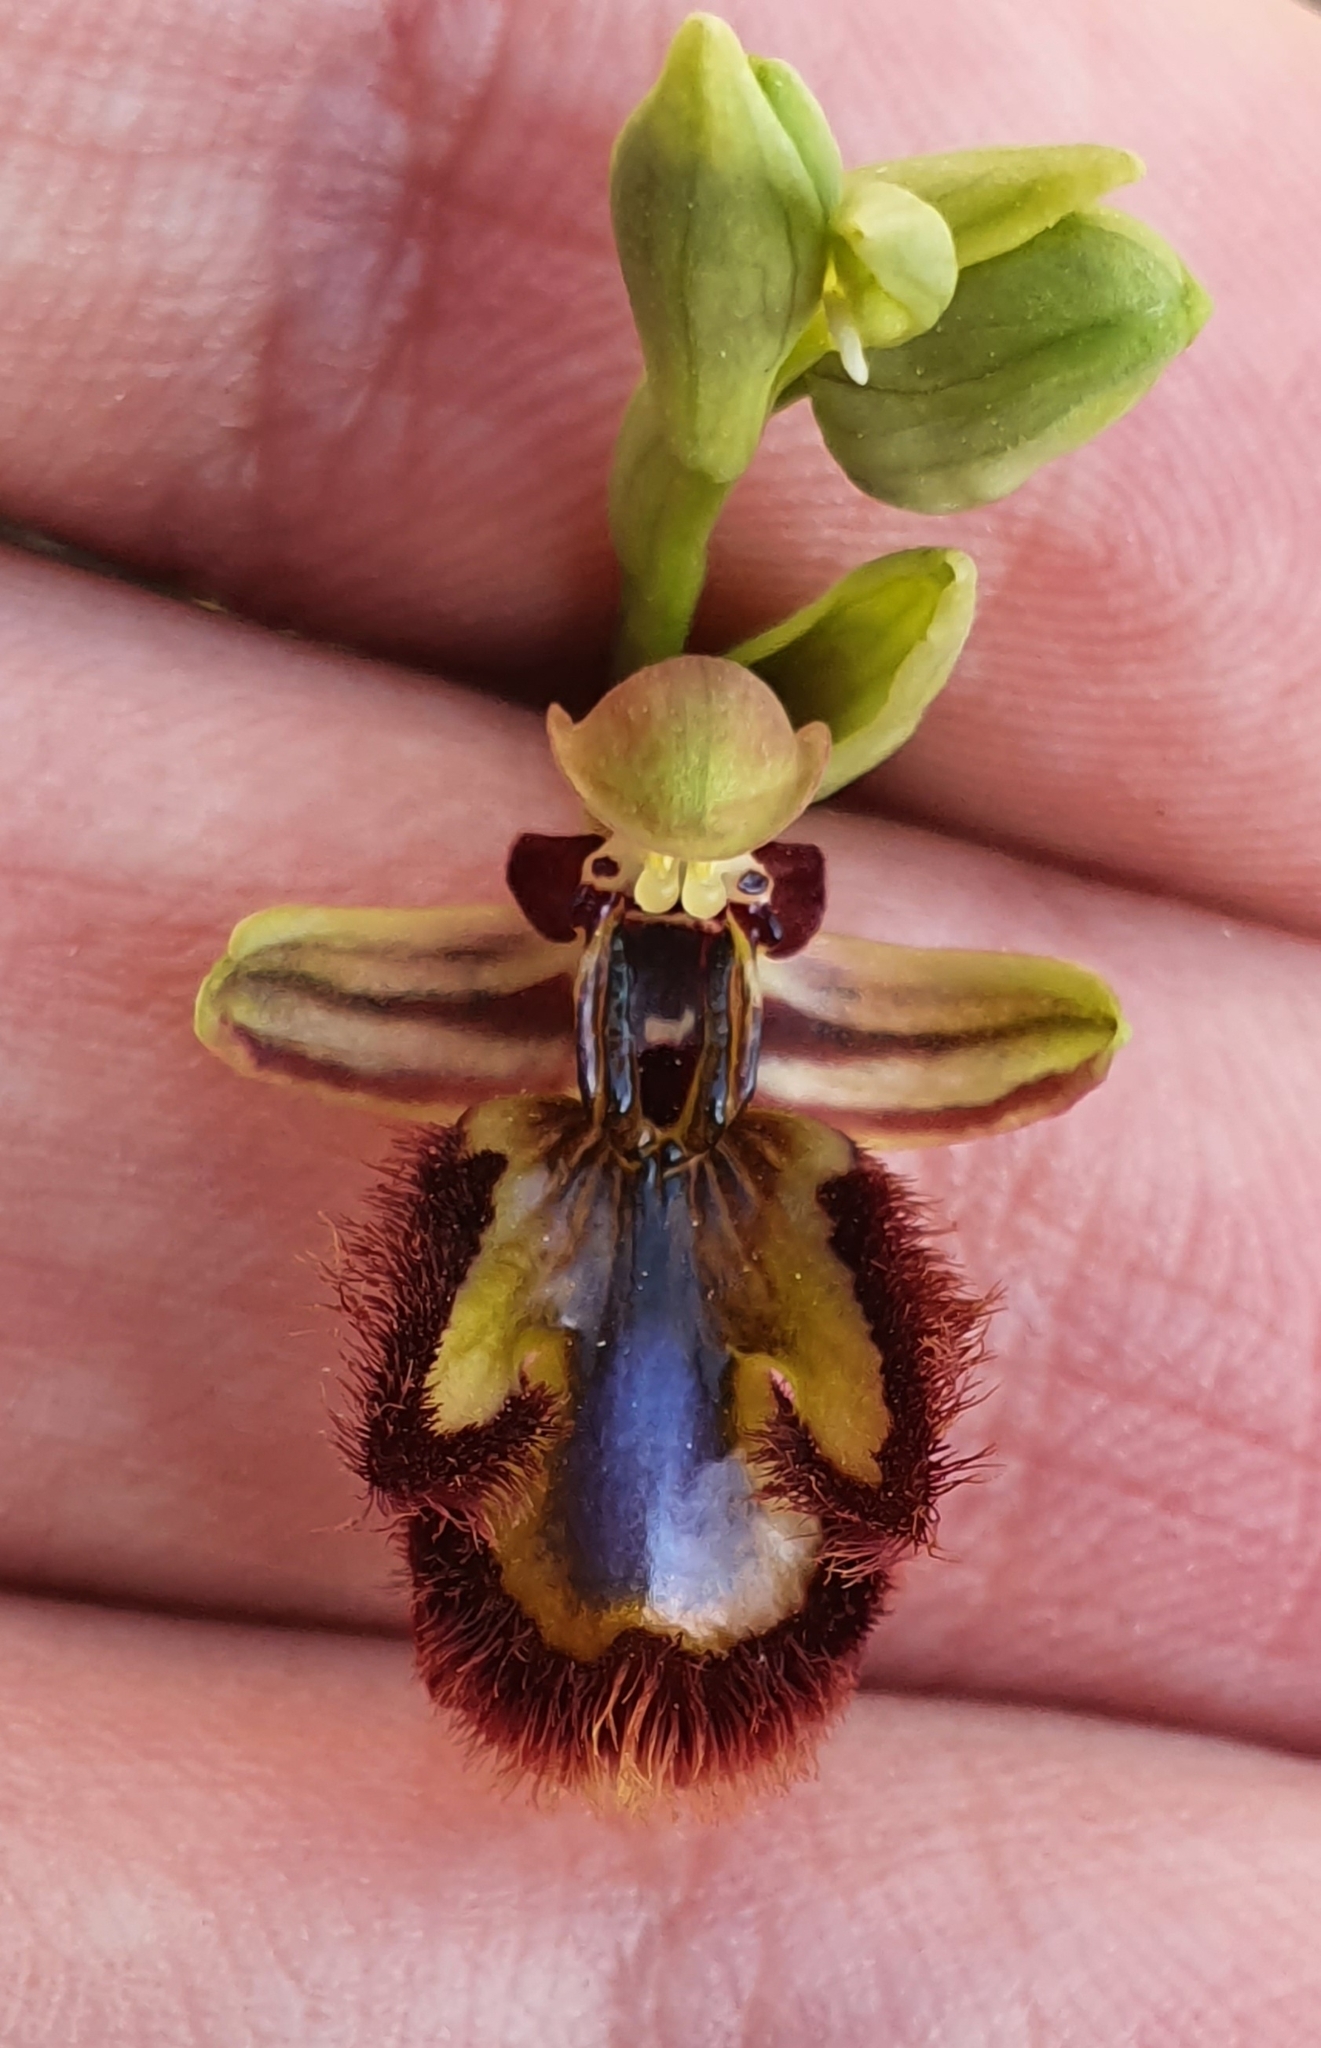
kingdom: Plantae
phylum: Tracheophyta
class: Liliopsida
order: Asparagales
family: Orchidaceae
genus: Ophrys
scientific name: Ophrys speculum
